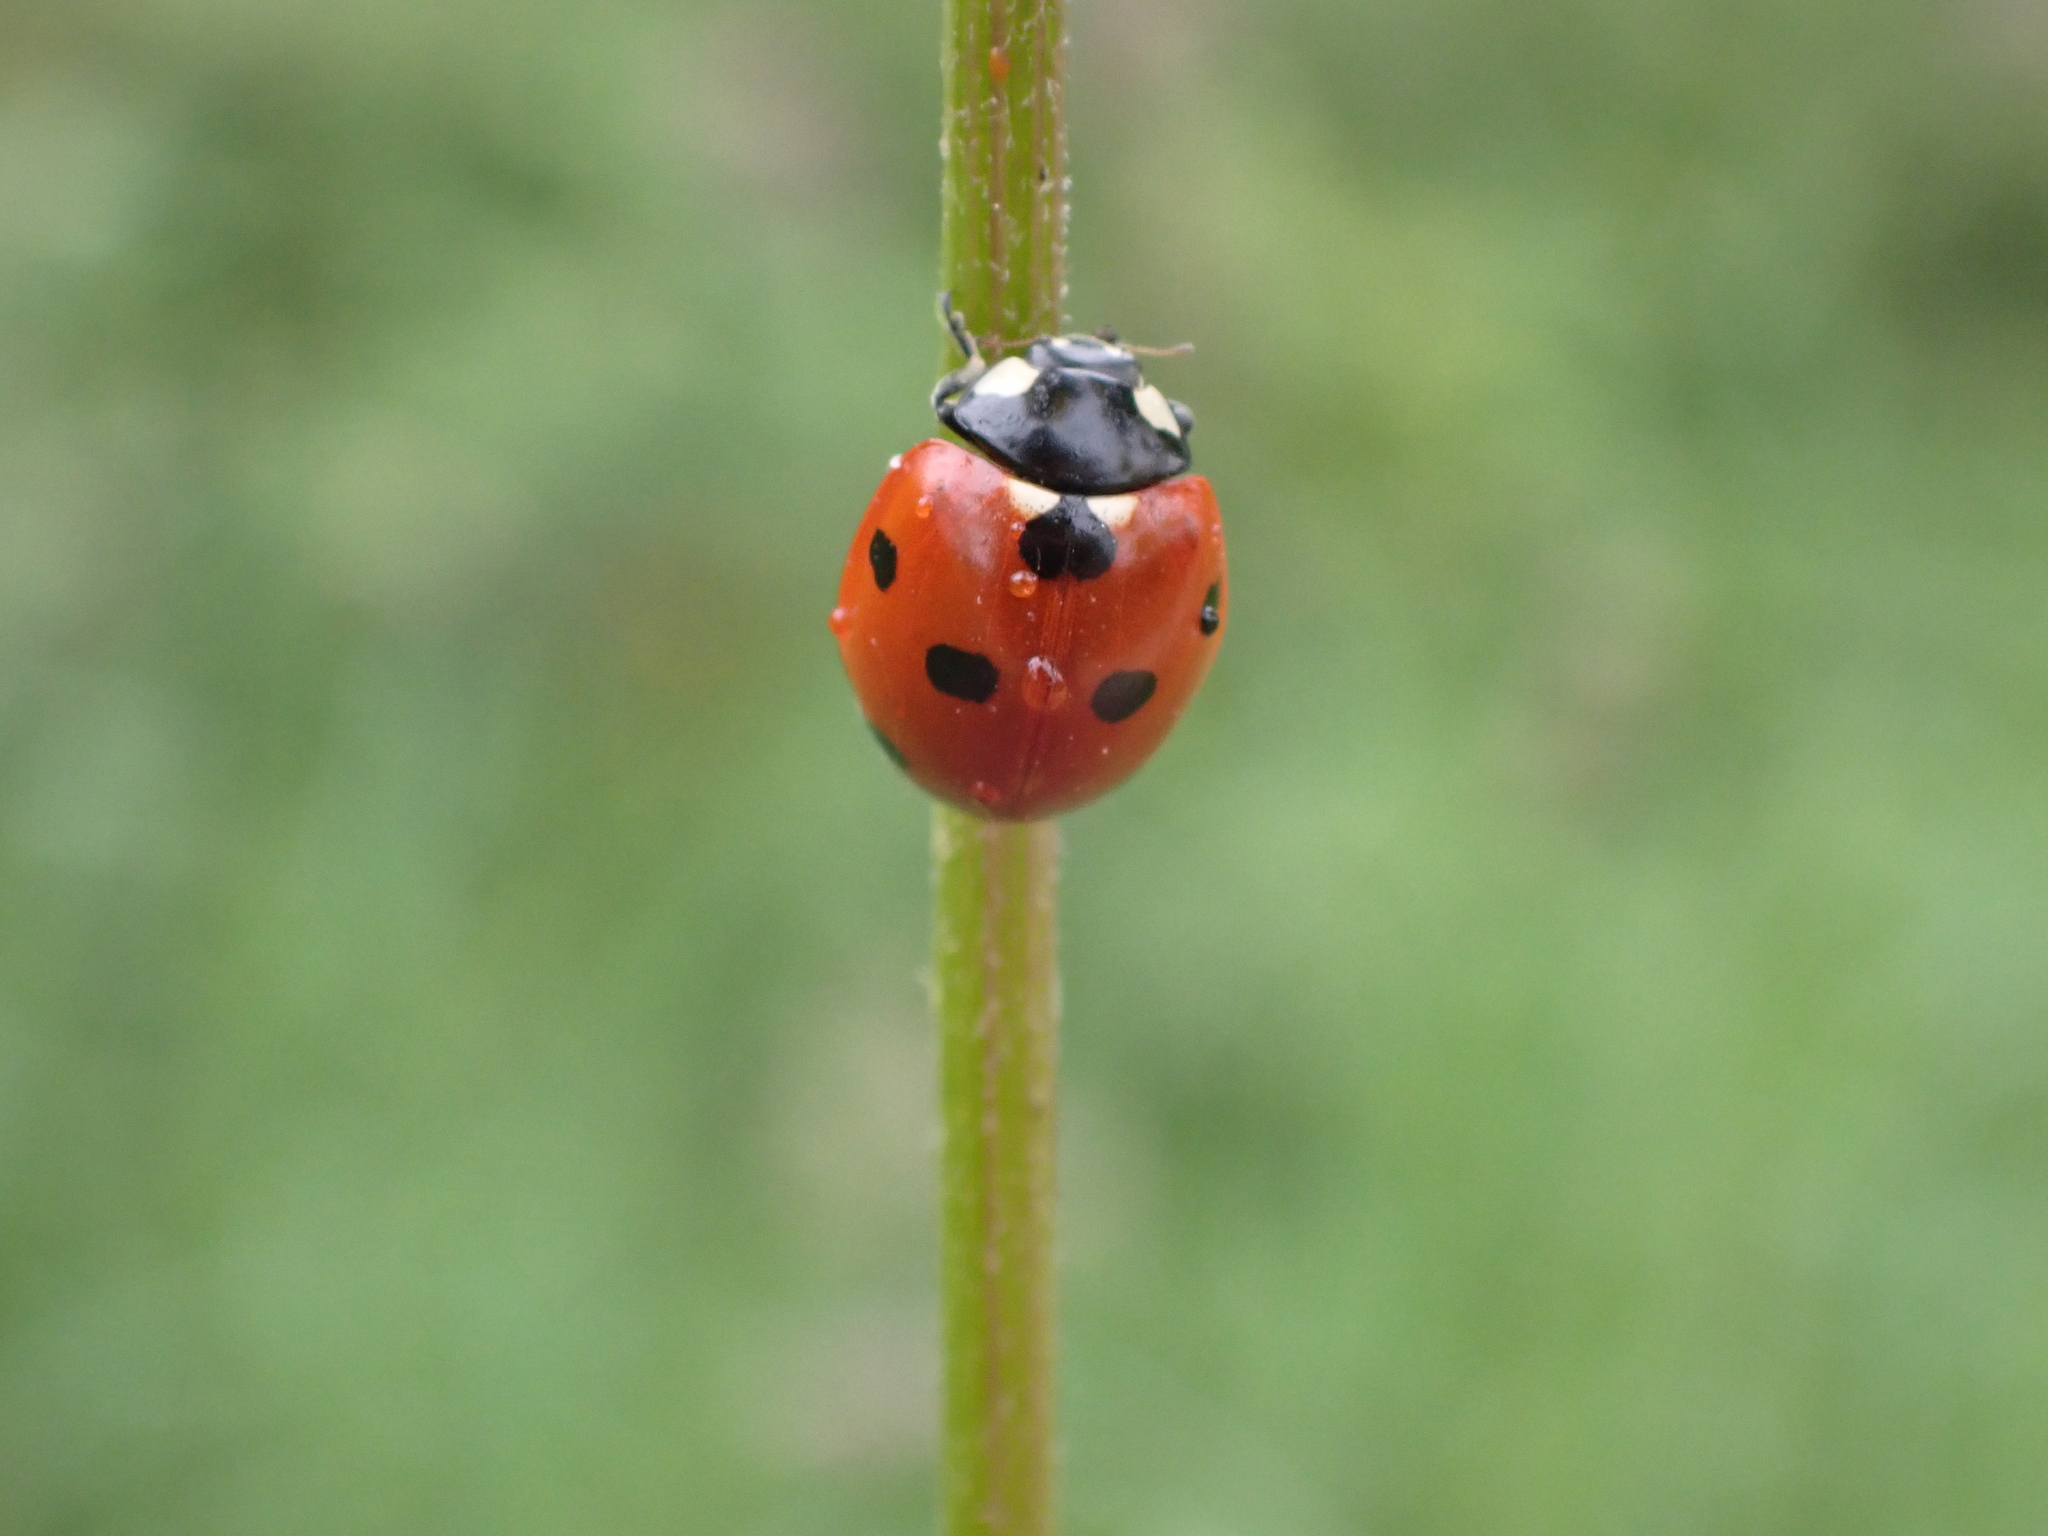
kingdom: Animalia
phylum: Arthropoda
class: Insecta
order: Coleoptera
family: Coccinellidae
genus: Coccinella
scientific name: Coccinella septempunctata
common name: Sevenspotted lady beetle
